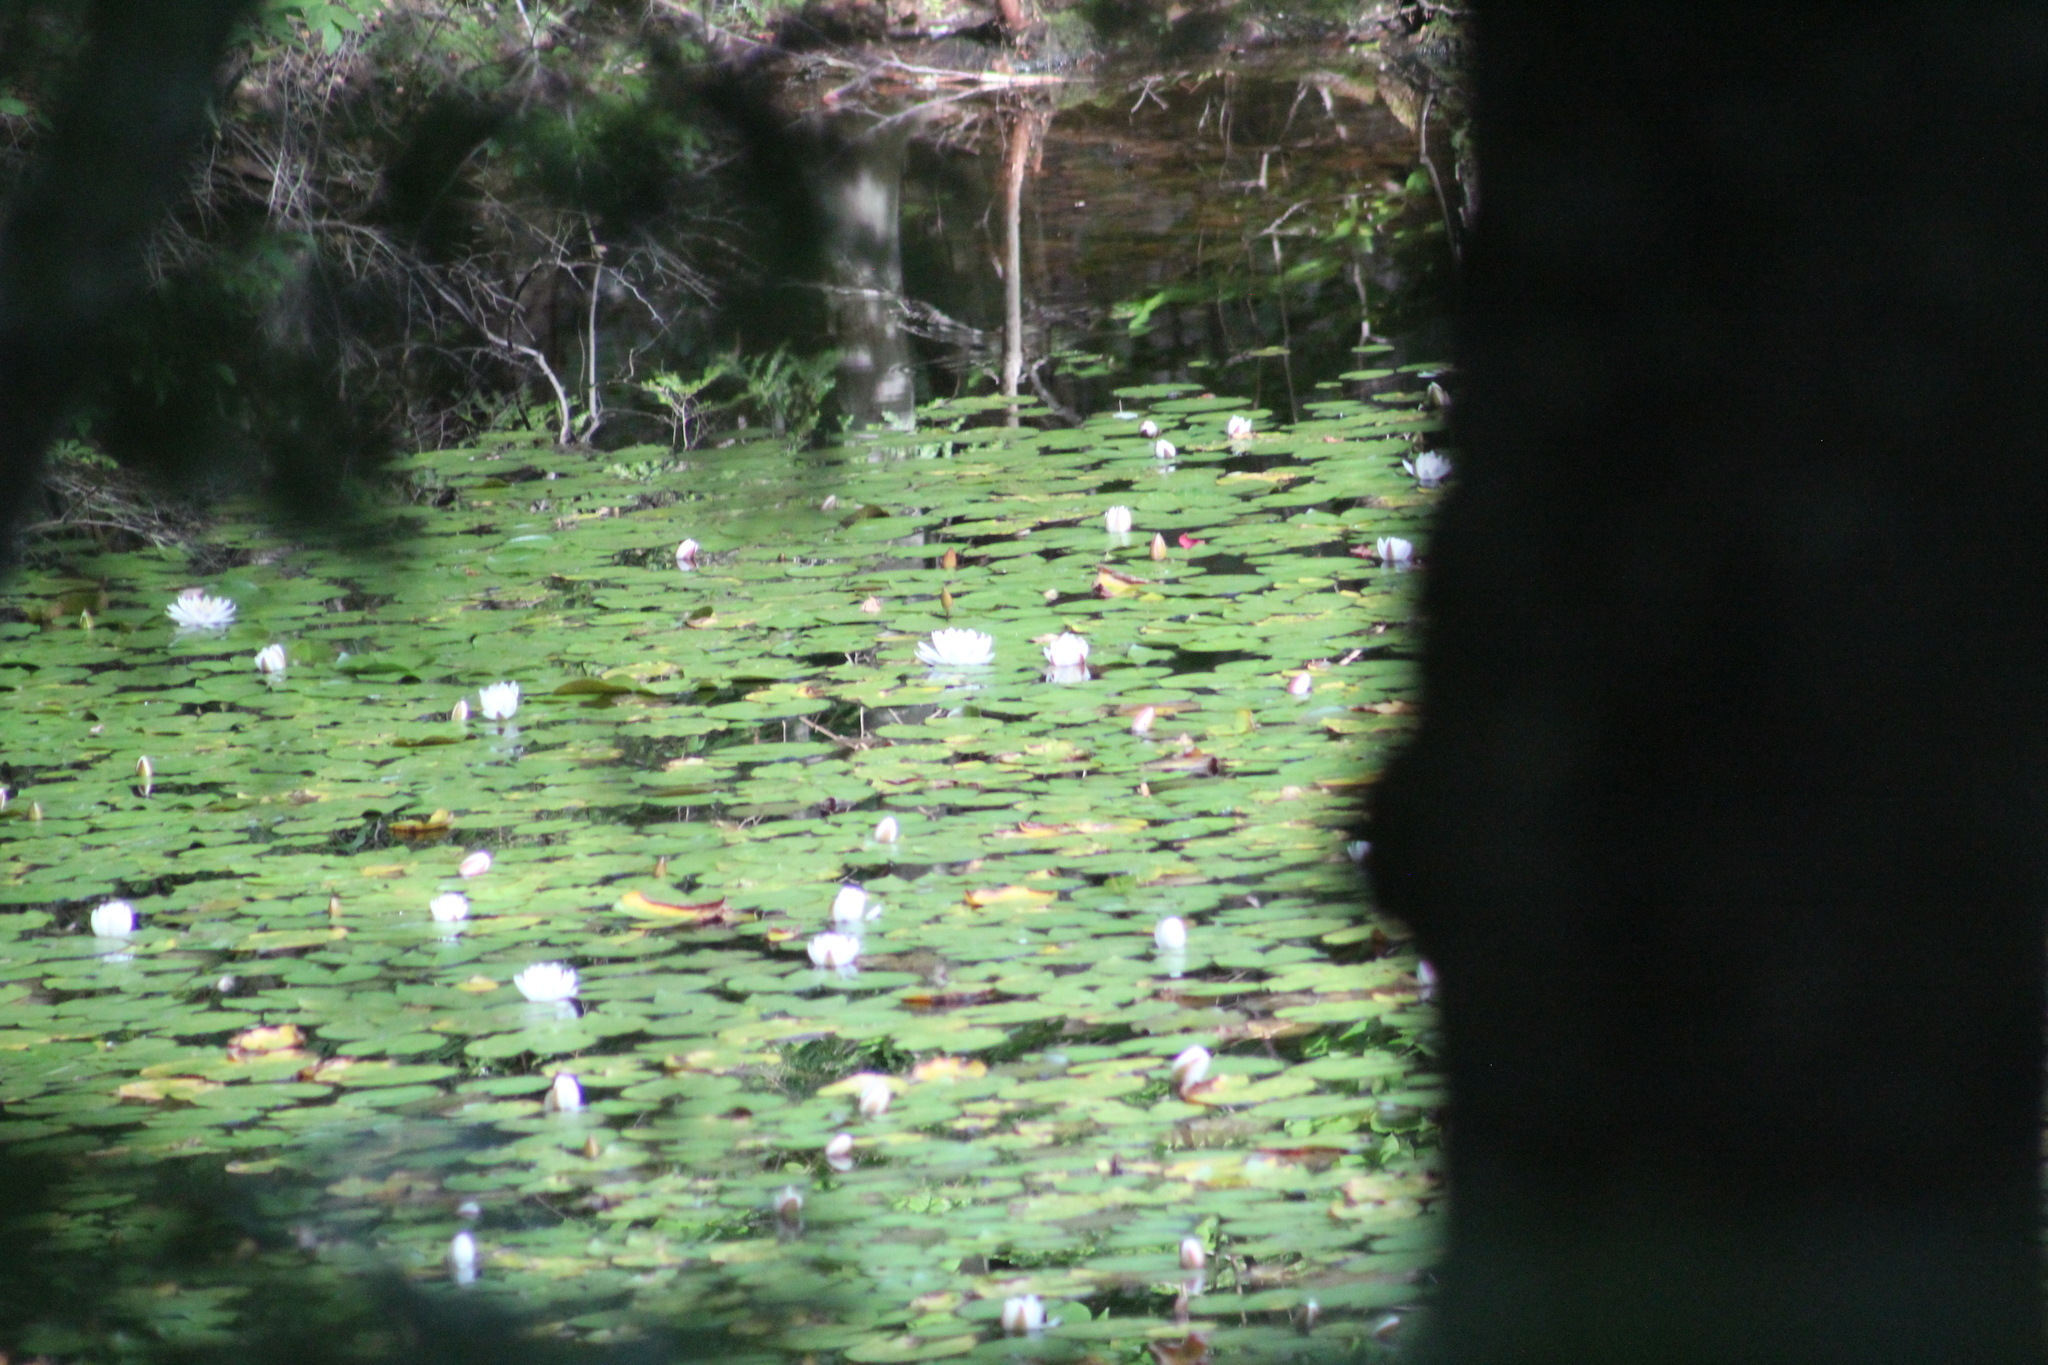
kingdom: Plantae
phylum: Tracheophyta
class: Magnoliopsida
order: Nymphaeales
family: Nymphaeaceae
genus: Nymphaea
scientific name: Nymphaea odorata
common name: Fragrant water-lily
